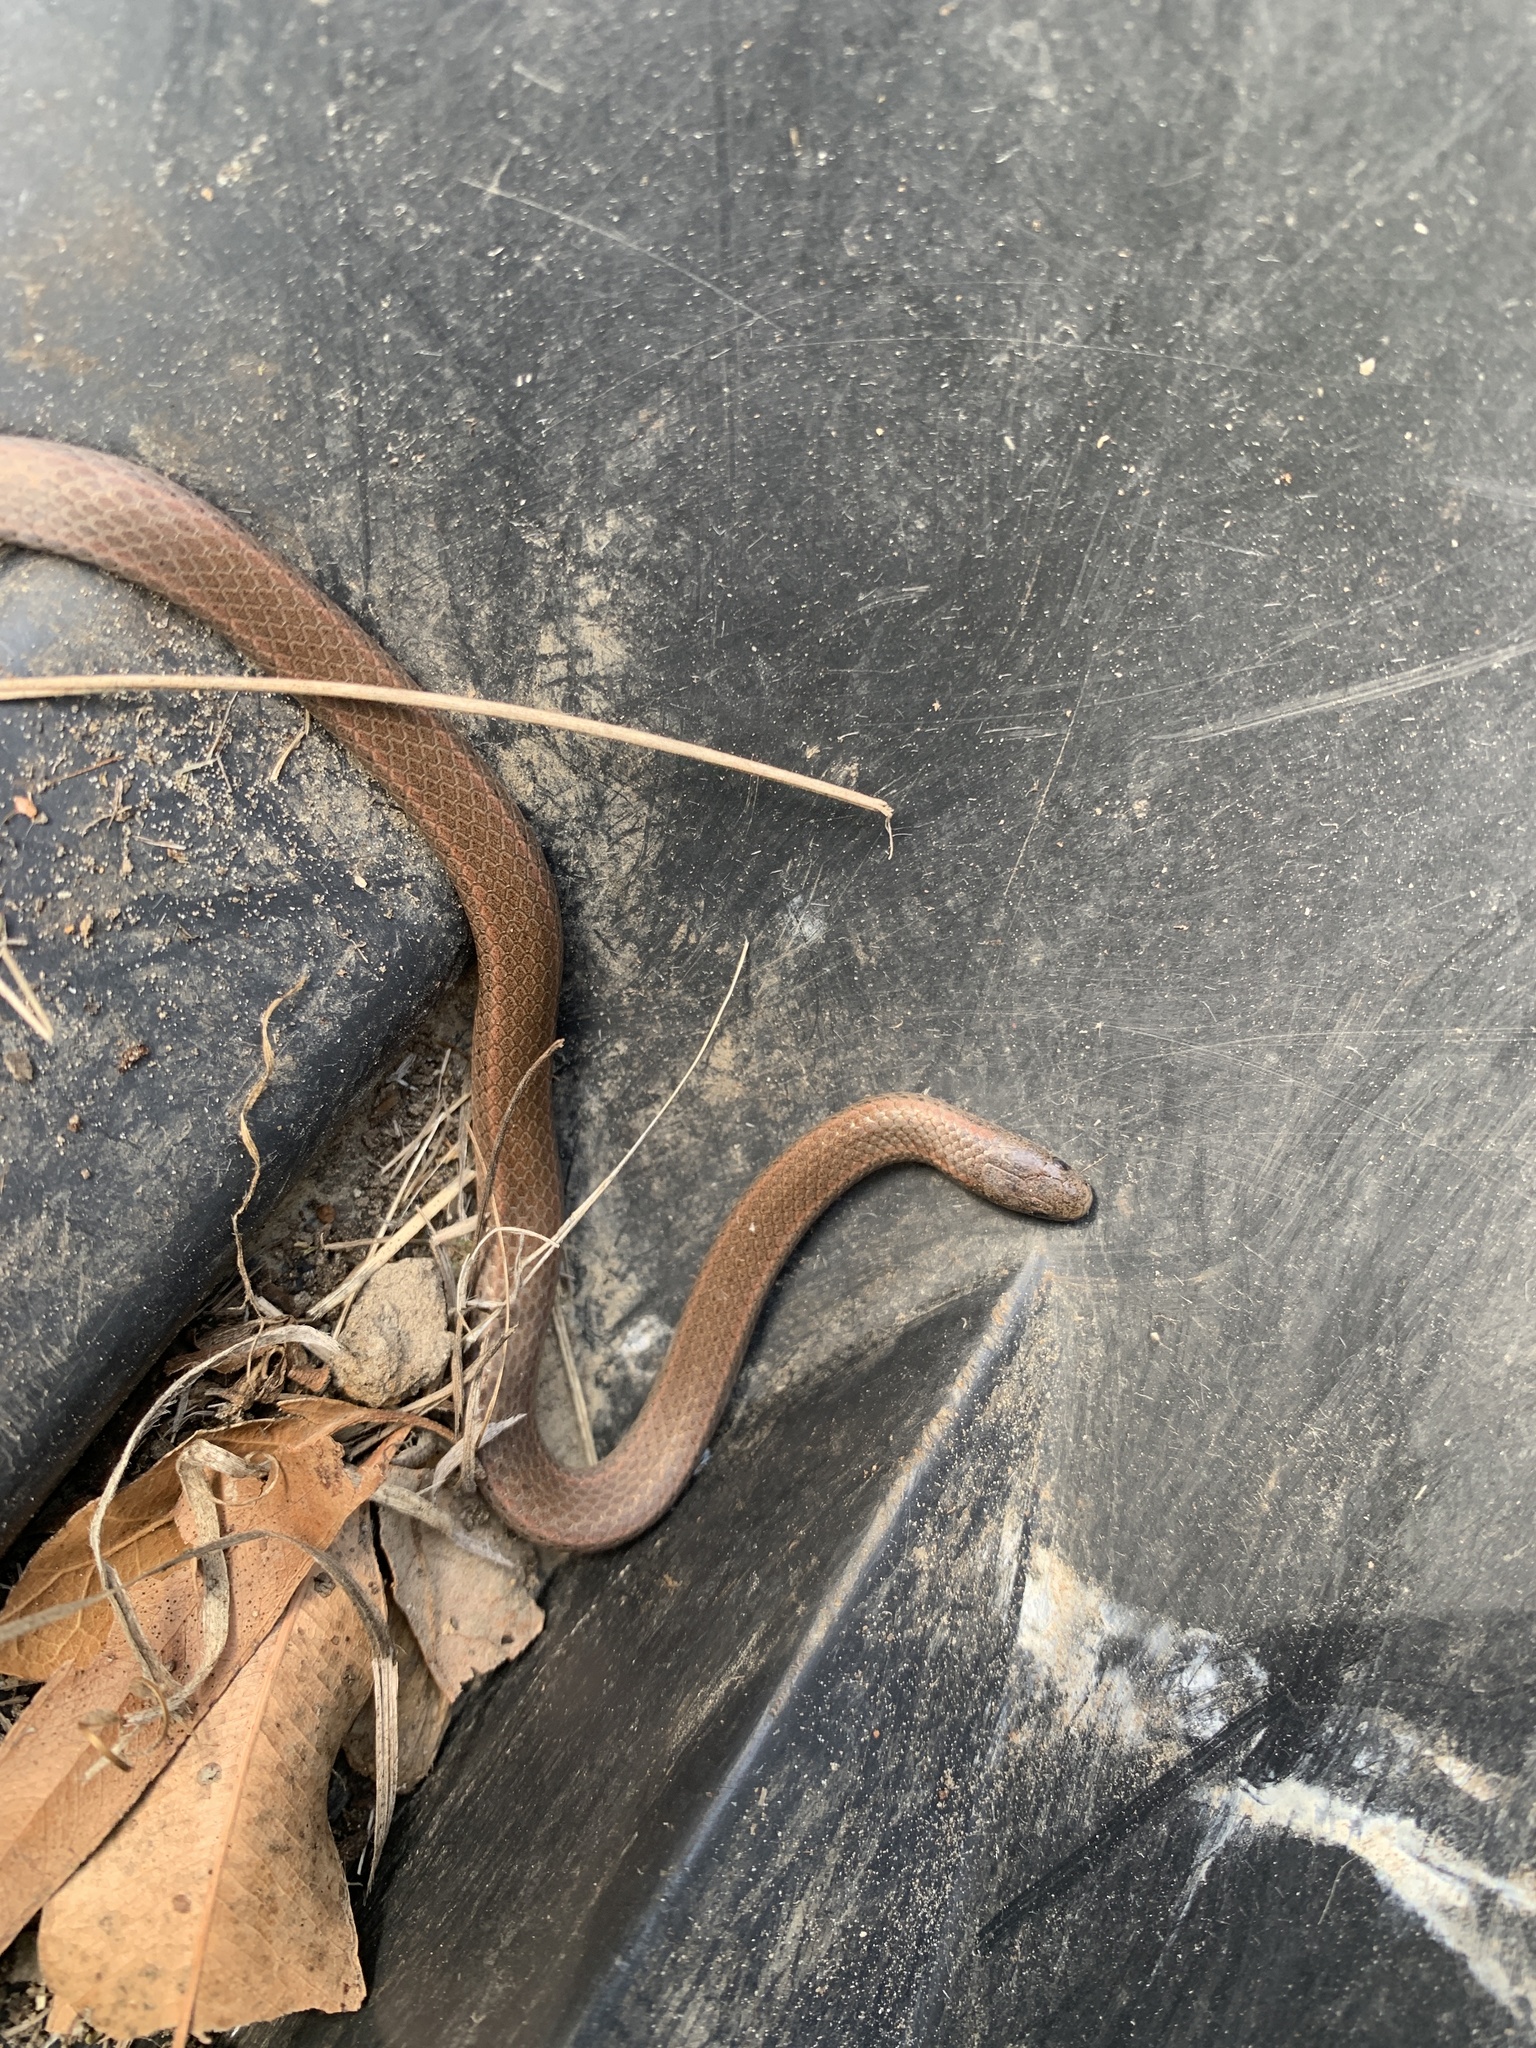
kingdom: Animalia
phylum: Chordata
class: Squamata
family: Colubridae
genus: Contia
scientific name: Contia tenuis
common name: Sharptail snake
